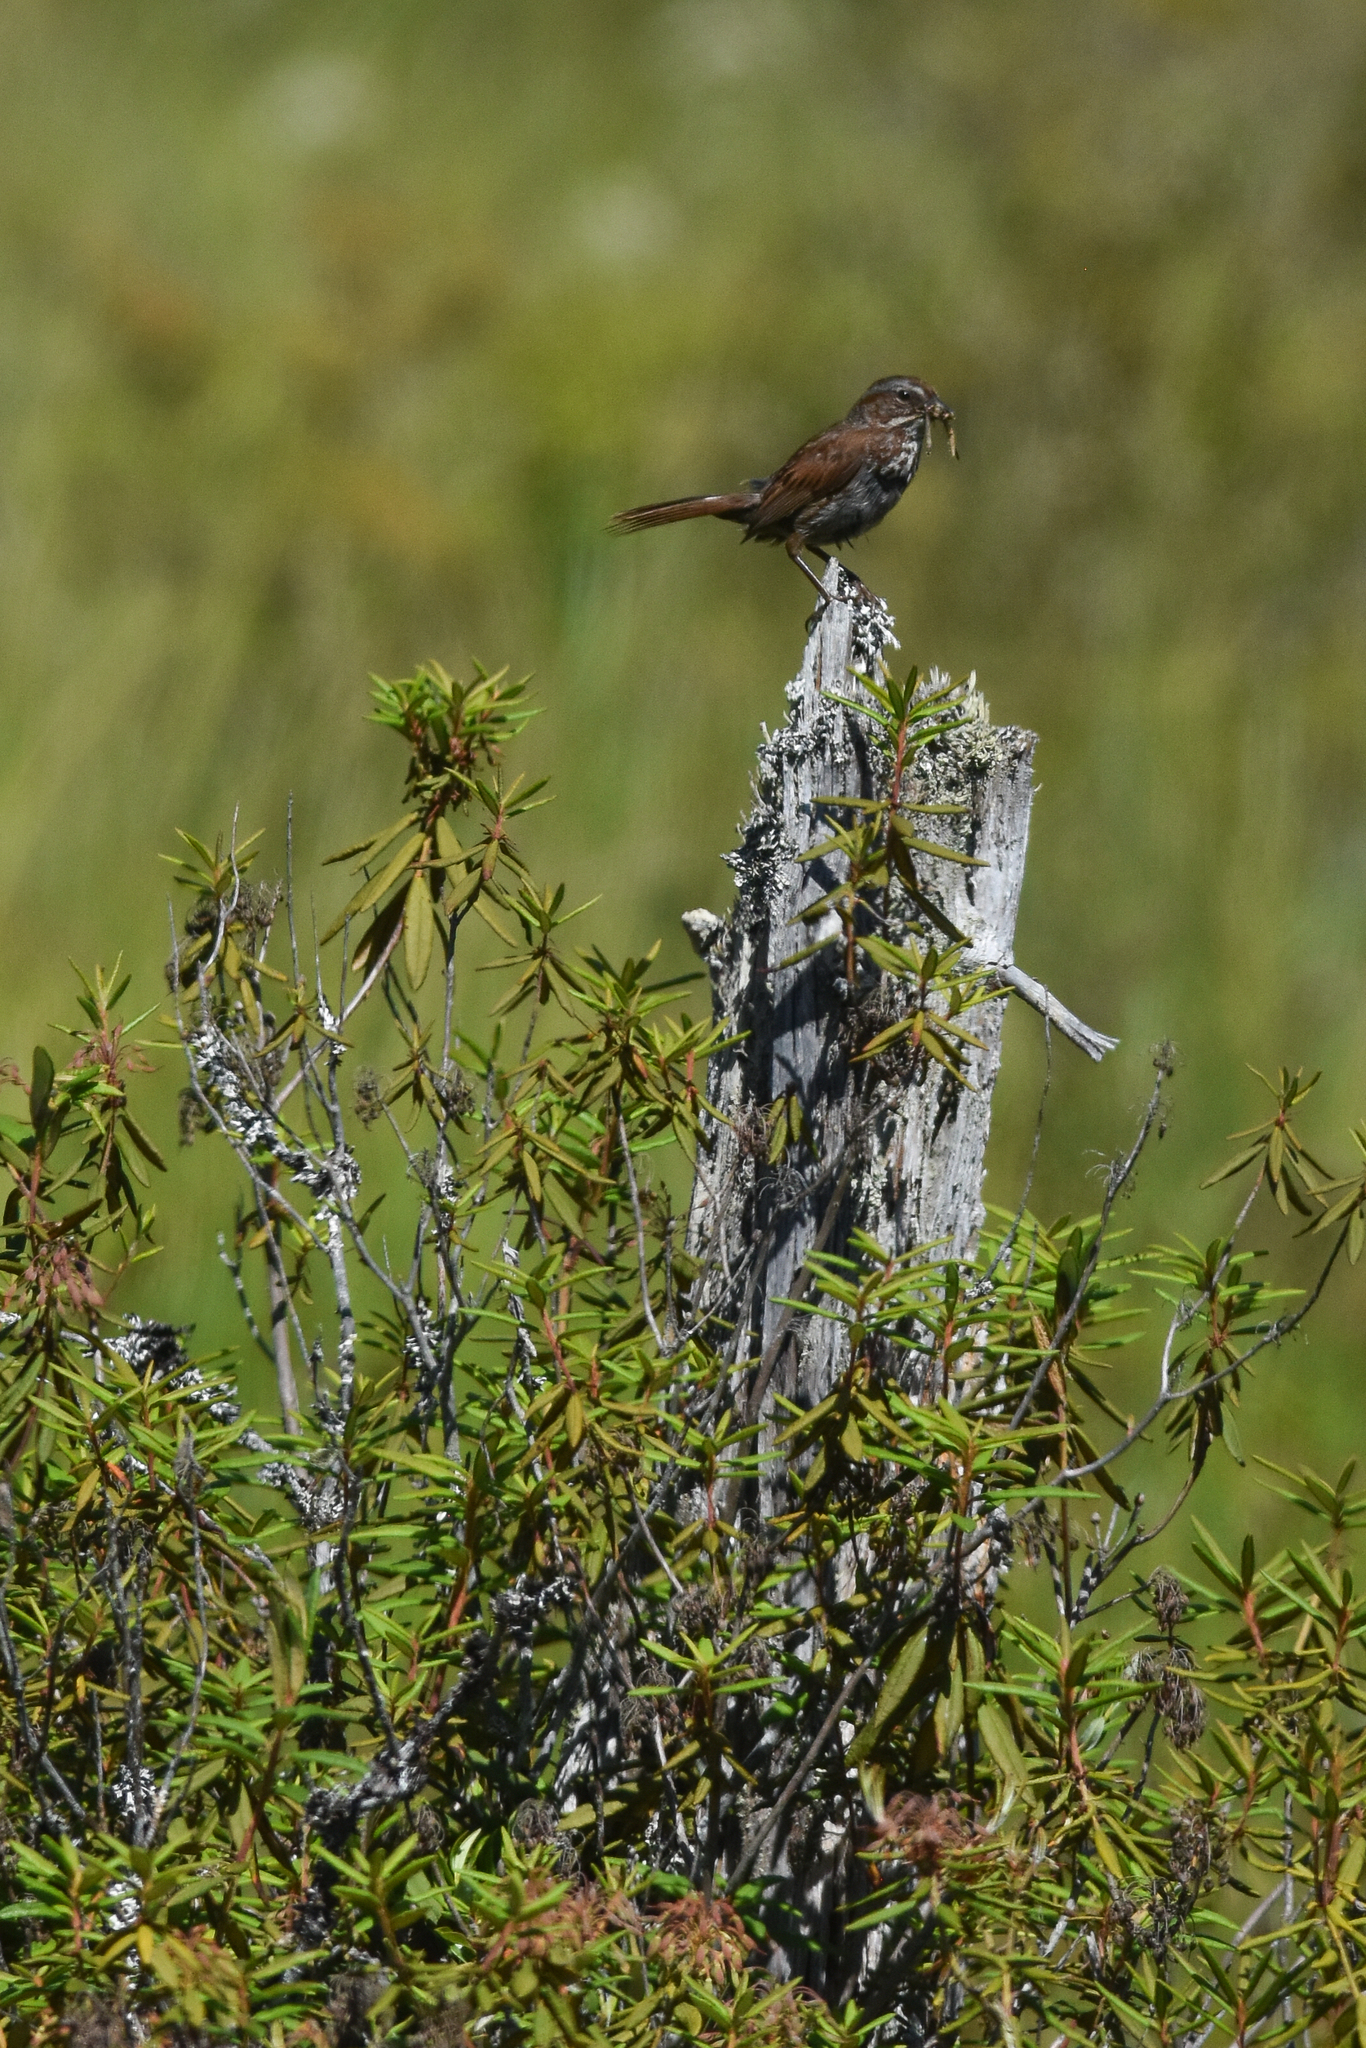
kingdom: Animalia
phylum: Chordata
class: Aves
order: Passeriformes
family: Passerellidae
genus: Melospiza
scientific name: Melospiza melodia
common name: Song sparrow
